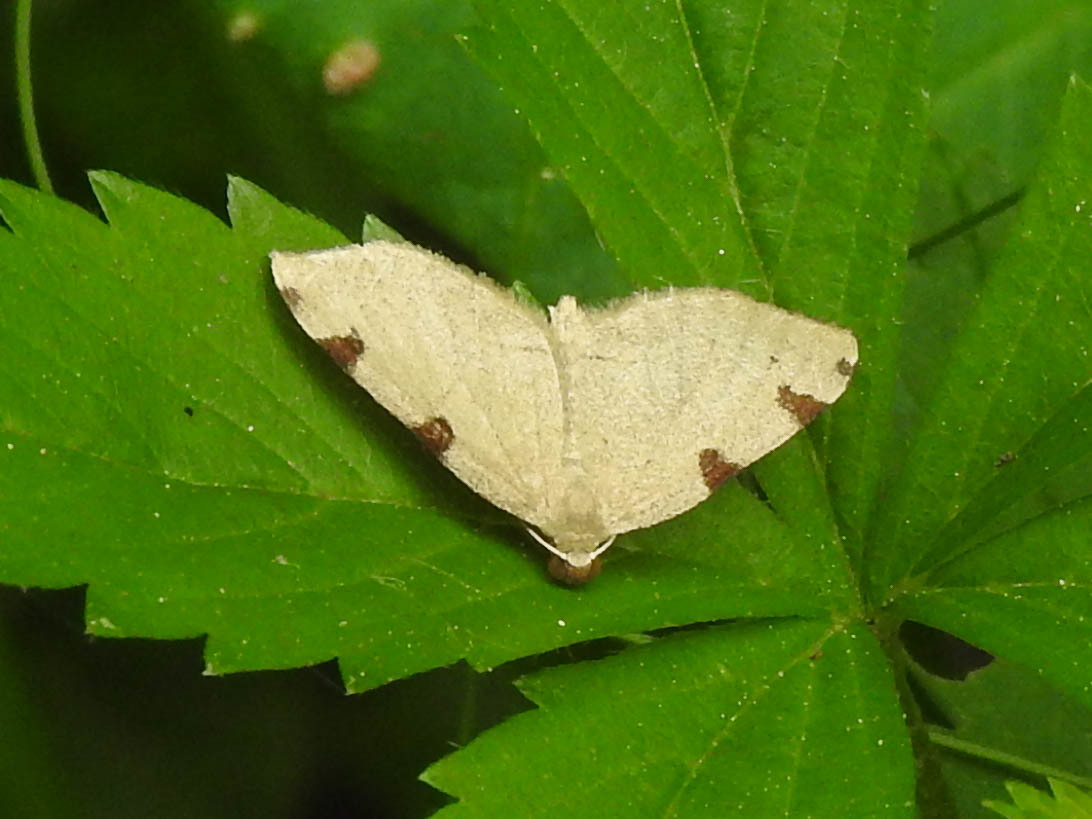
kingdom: Animalia
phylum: Arthropoda
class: Insecta
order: Lepidoptera
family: Geometridae
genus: Heterophleps
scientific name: Heterophleps triguttaria
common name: Three-spotted fillip
